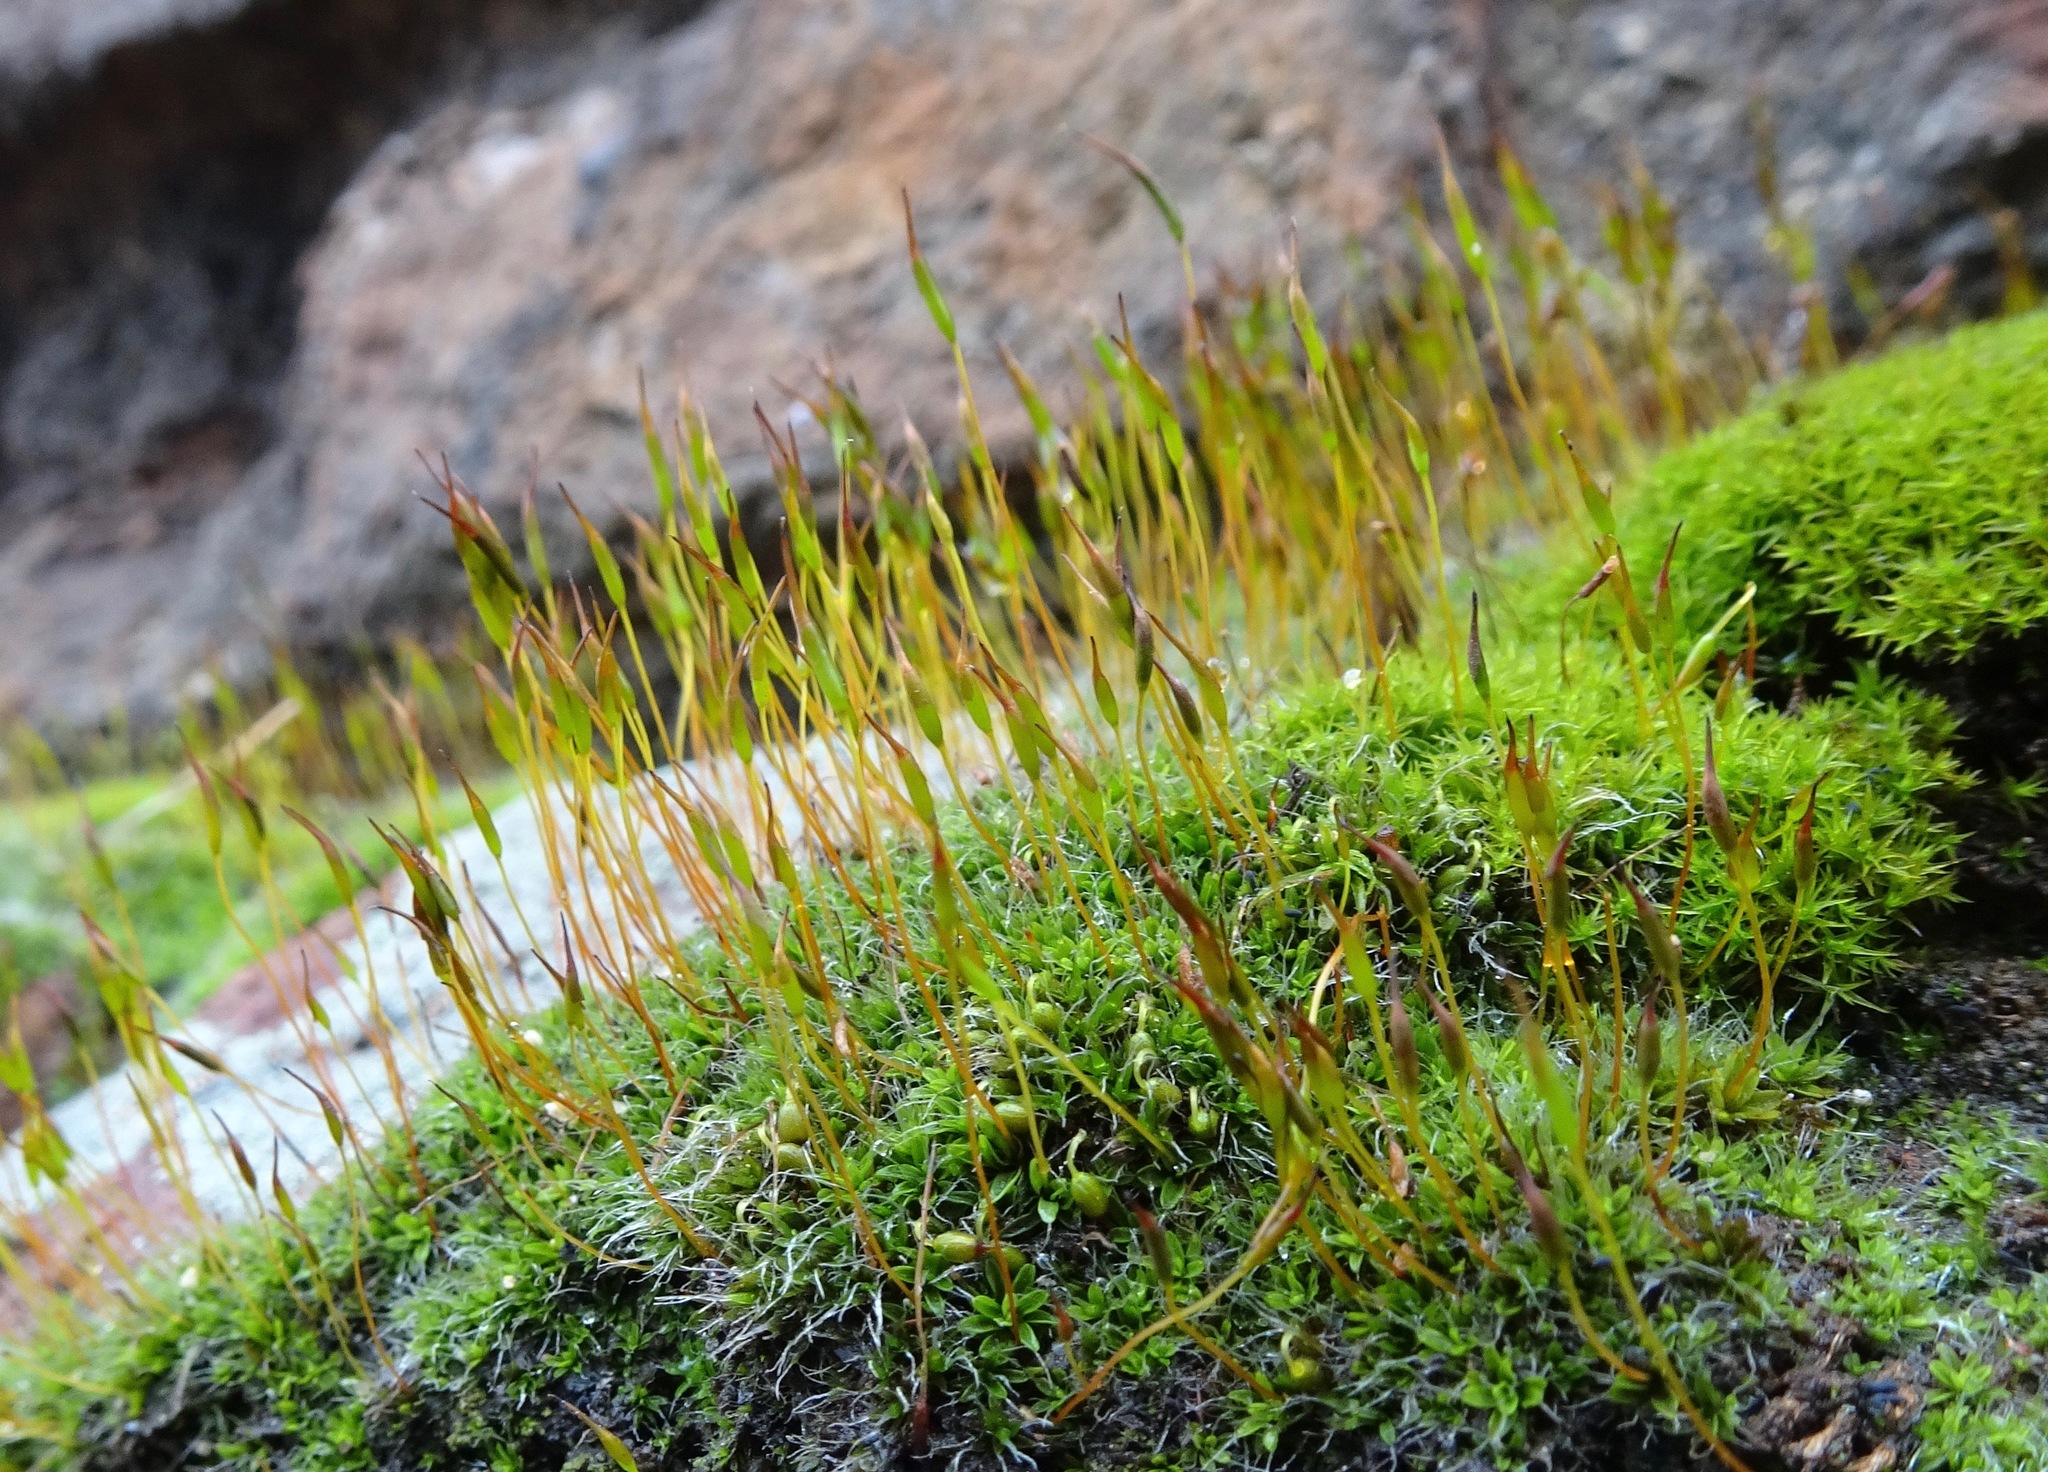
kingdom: Plantae
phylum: Bryophyta
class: Bryopsida
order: Pottiales
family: Pottiaceae
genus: Tortula
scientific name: Tortula muralis
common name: Wall screw-moss
